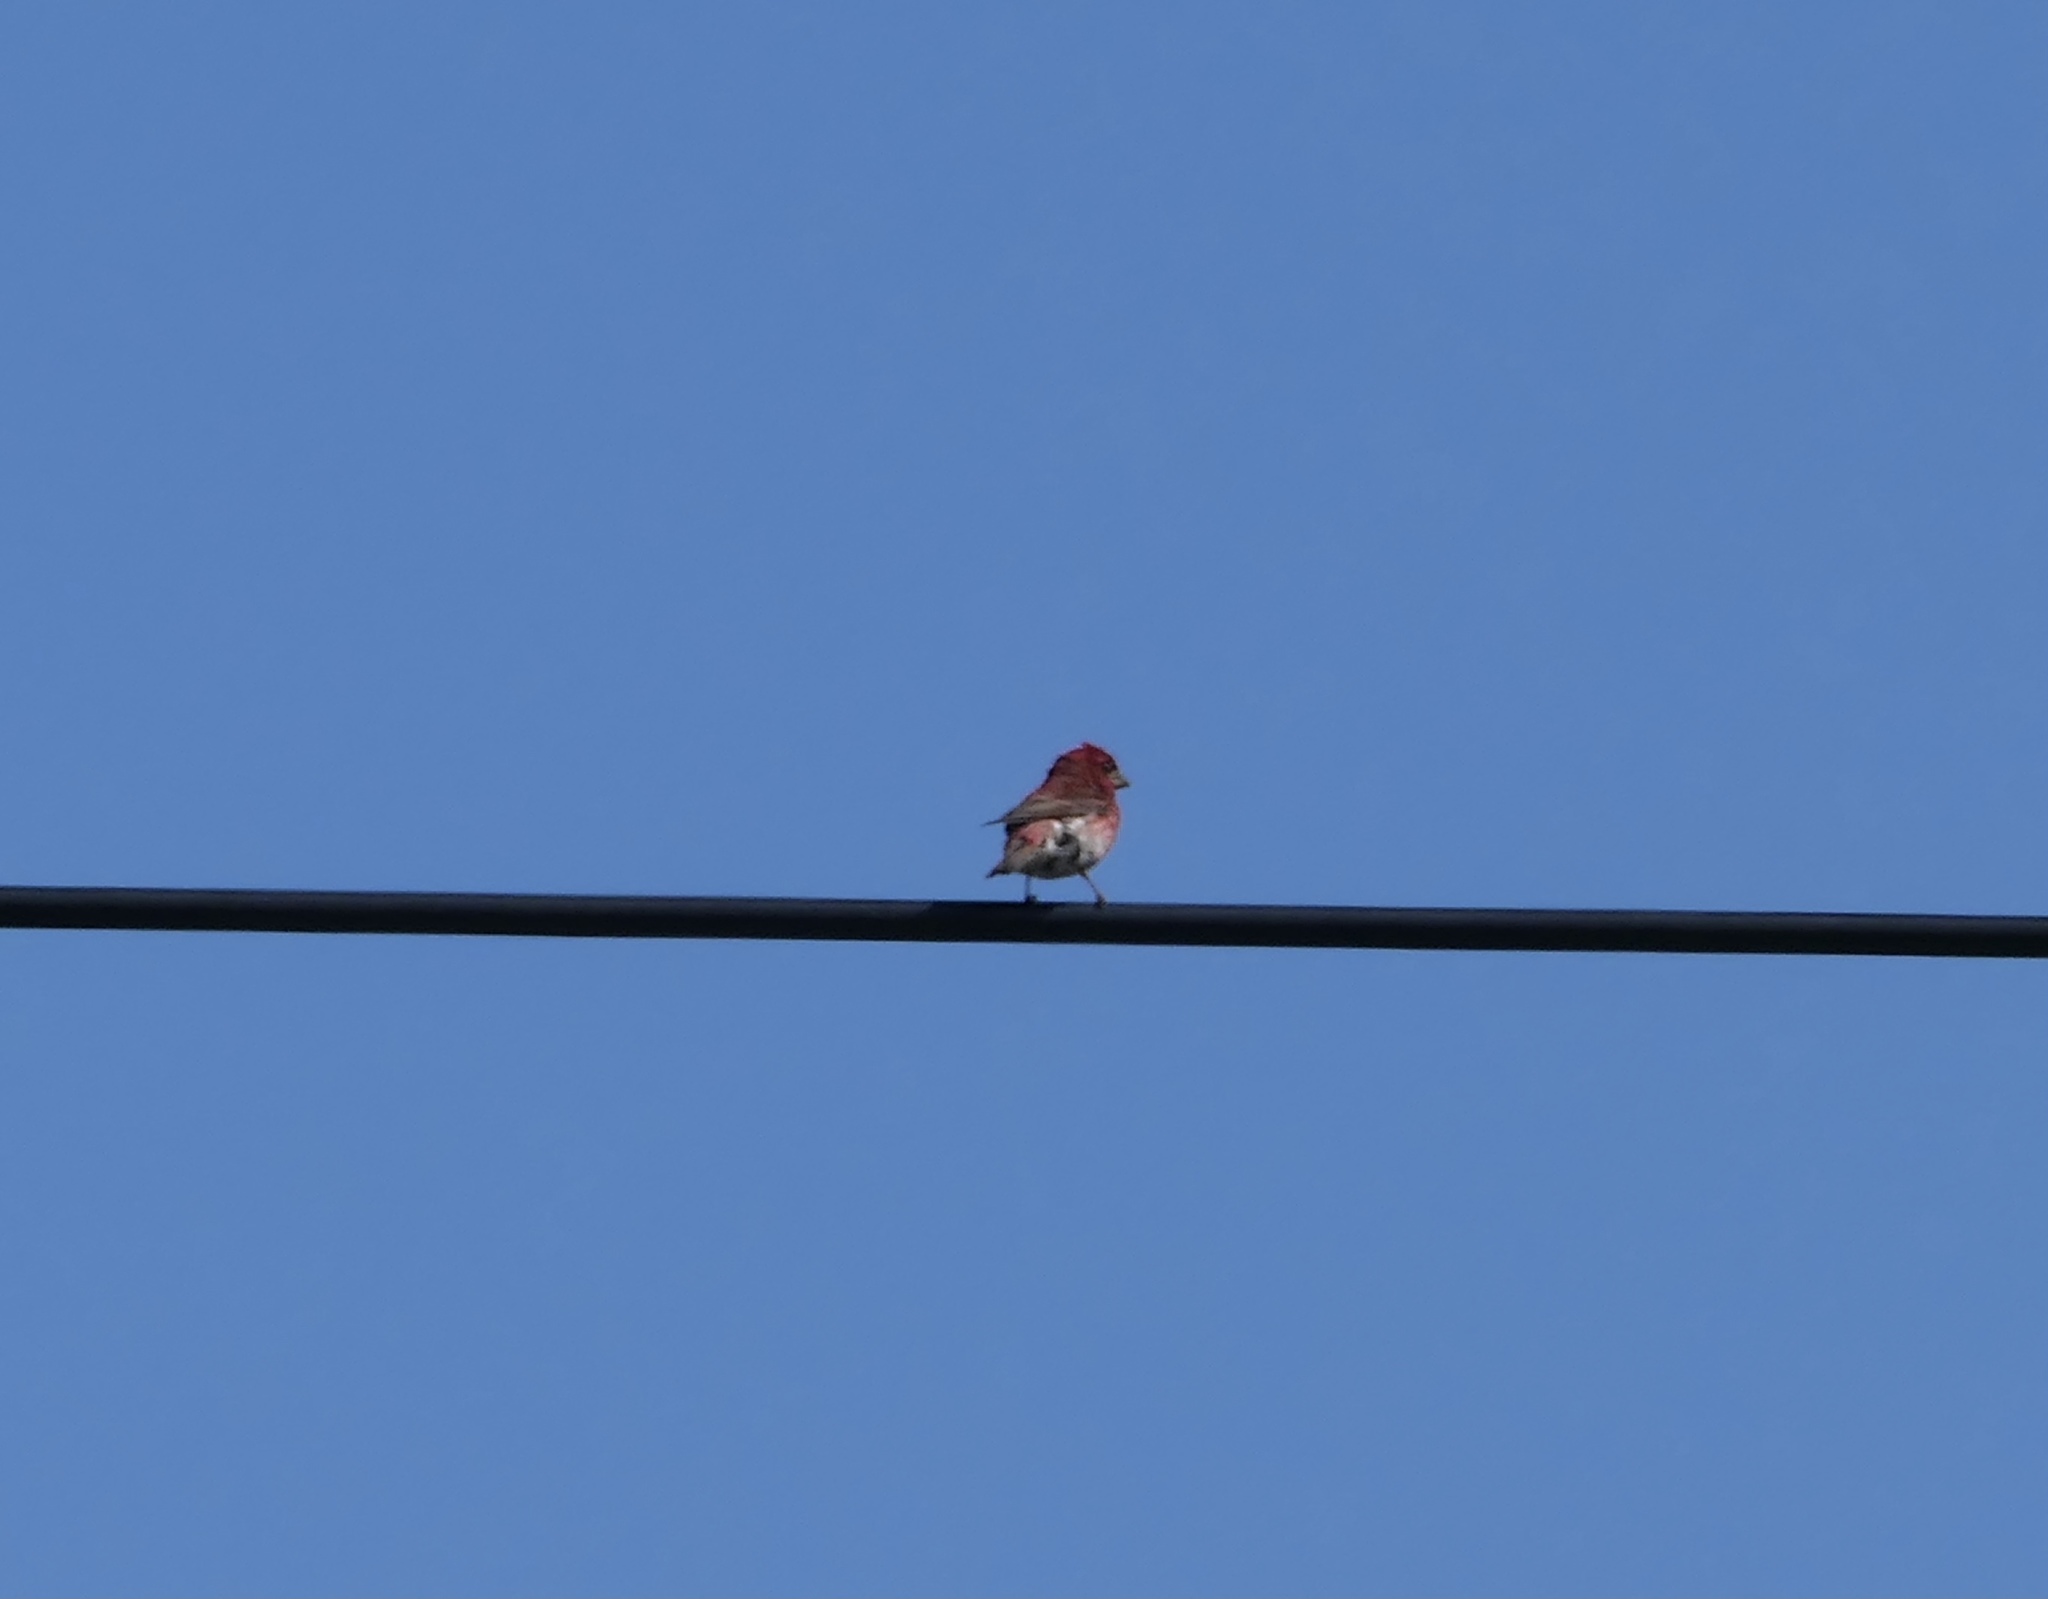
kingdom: Animalia
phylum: Chordata
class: Aves
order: Passeriformes
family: Fringillidae
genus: Haemorhous
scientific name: Haemorhous purpureus
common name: Purple finch
